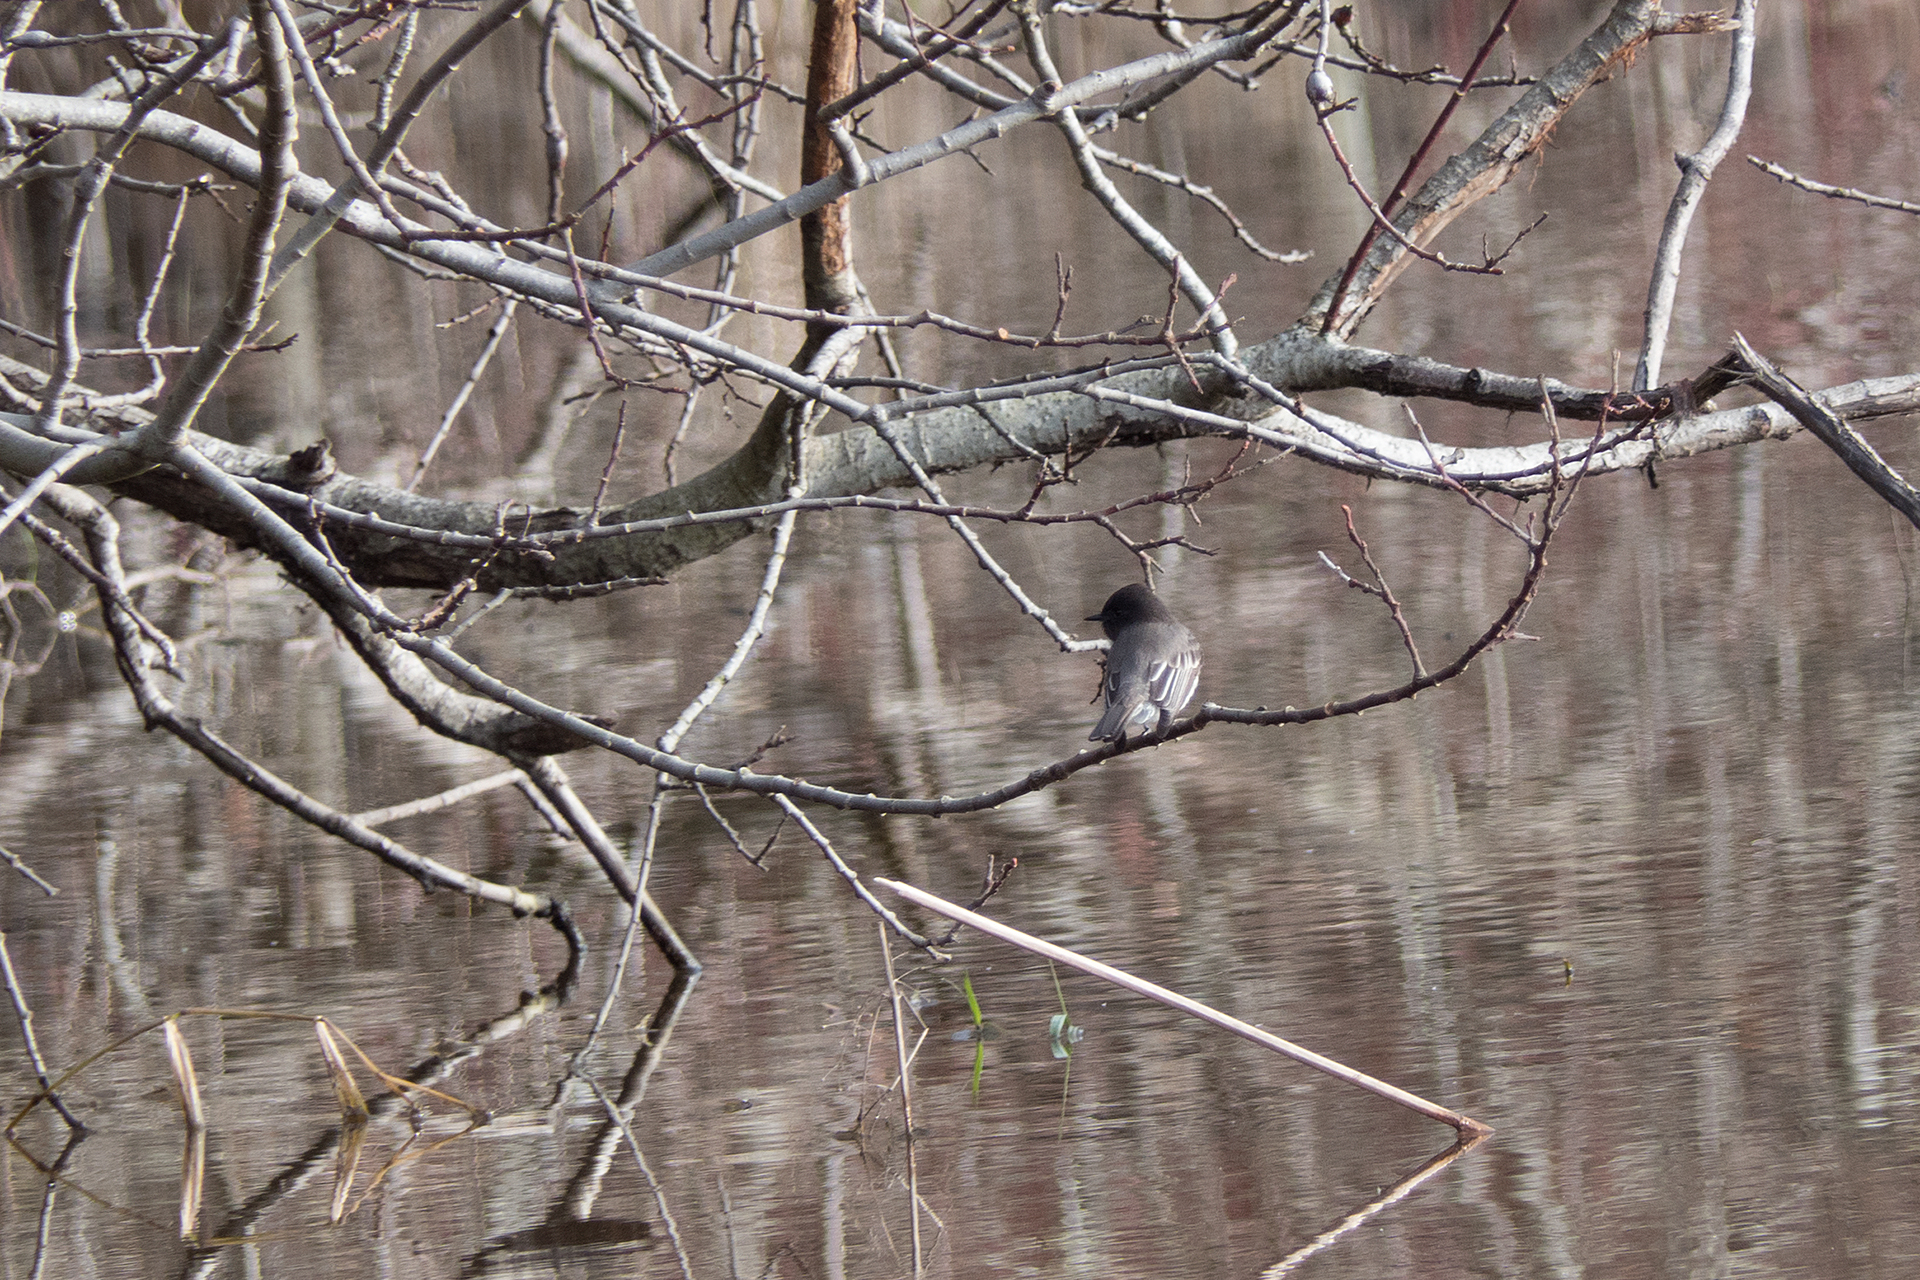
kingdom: Animalia
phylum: Chordata
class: Aves
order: Passeriformes
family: Tyrannidae
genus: Sayornis
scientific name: Sayornis nigricans
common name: Black phoebe
